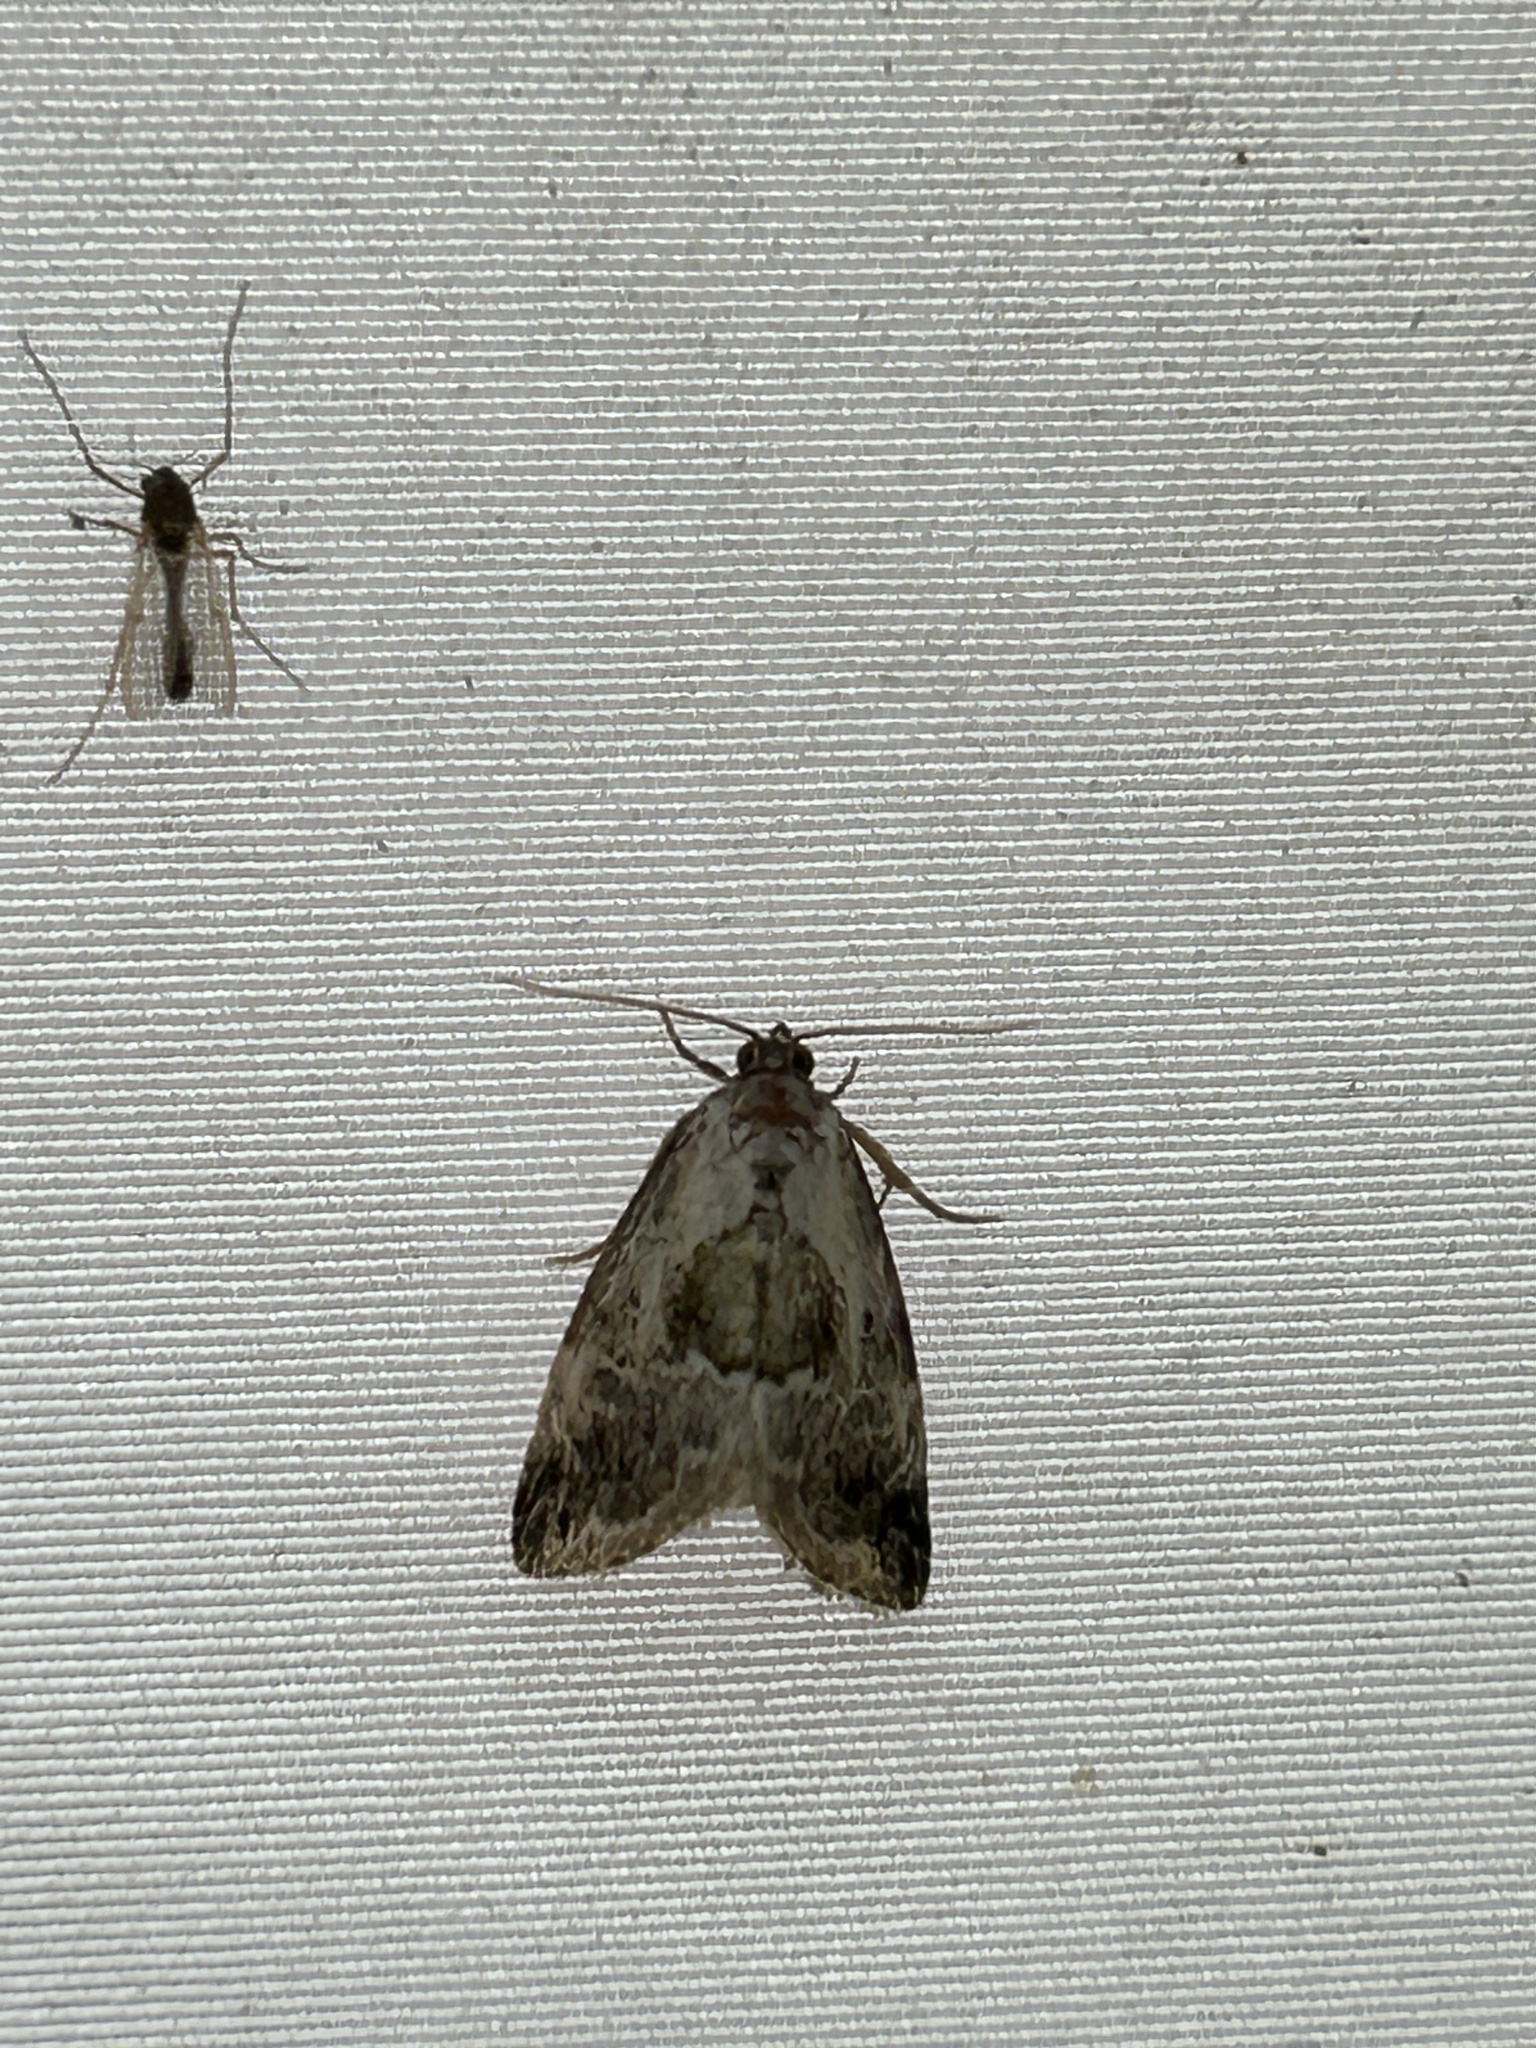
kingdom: Animalia
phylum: Arthropoda
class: Insecta
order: Lepidoptera
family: Noctuidae
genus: Maliattha
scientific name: Maliattha synochitis
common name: Black-dotted glyph
